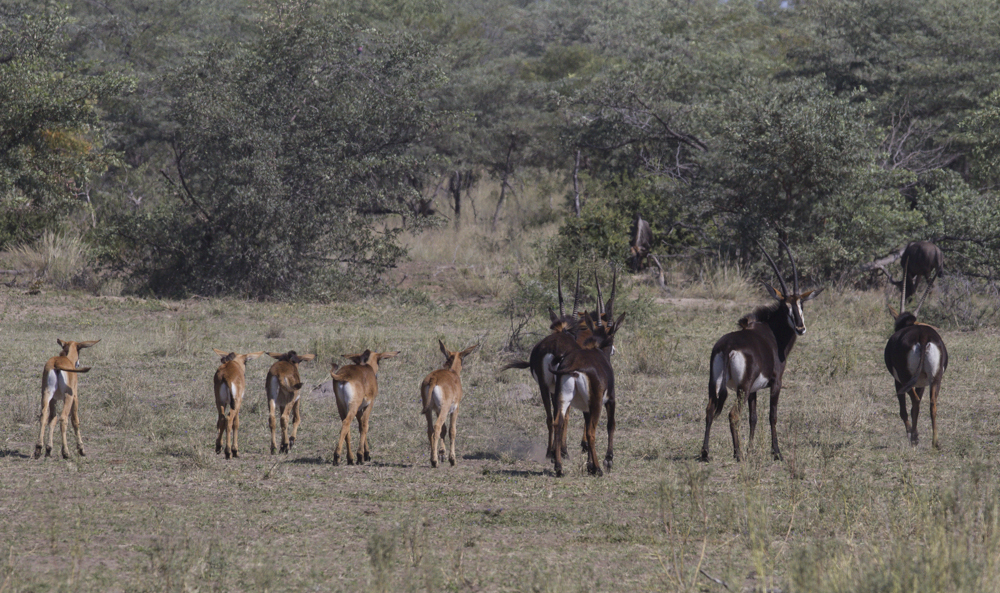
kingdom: Animalia
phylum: Chordata
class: Mammalia
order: Artiodactyla
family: Bovidae
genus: Hippotragus
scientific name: Hippotragus niger
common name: Sable antelope
